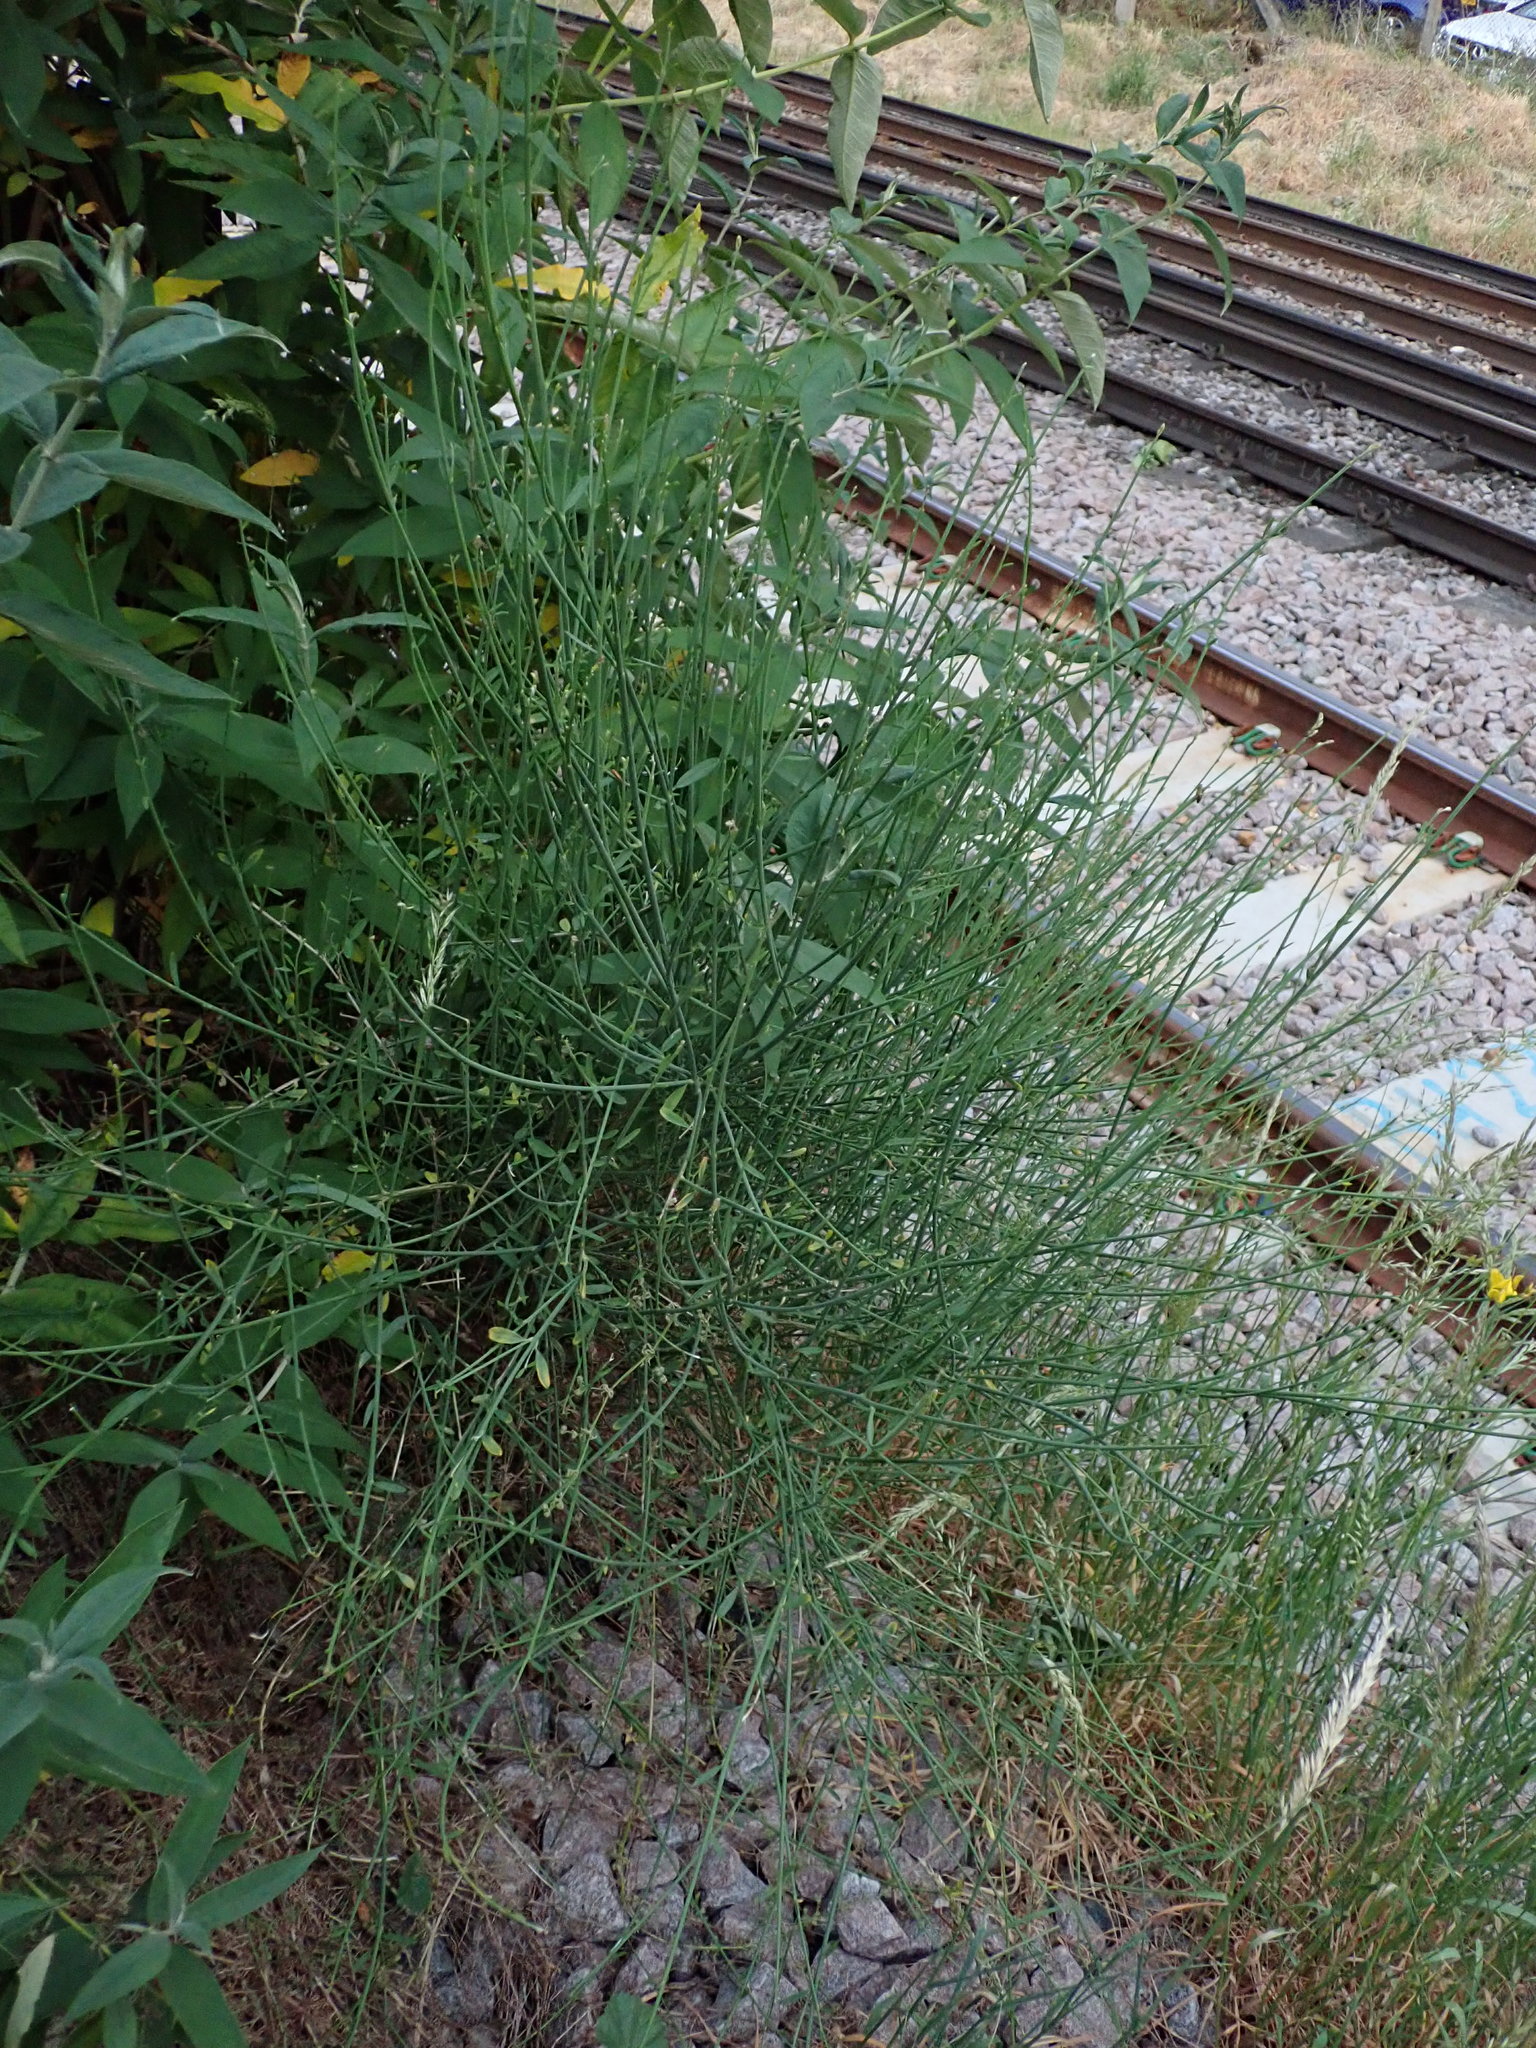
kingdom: Plantae
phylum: Tracheophyta
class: Magnoliopsida
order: Fabales
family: Fabaceae
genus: Spartium
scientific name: Spartium junceum
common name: Spanish broom
